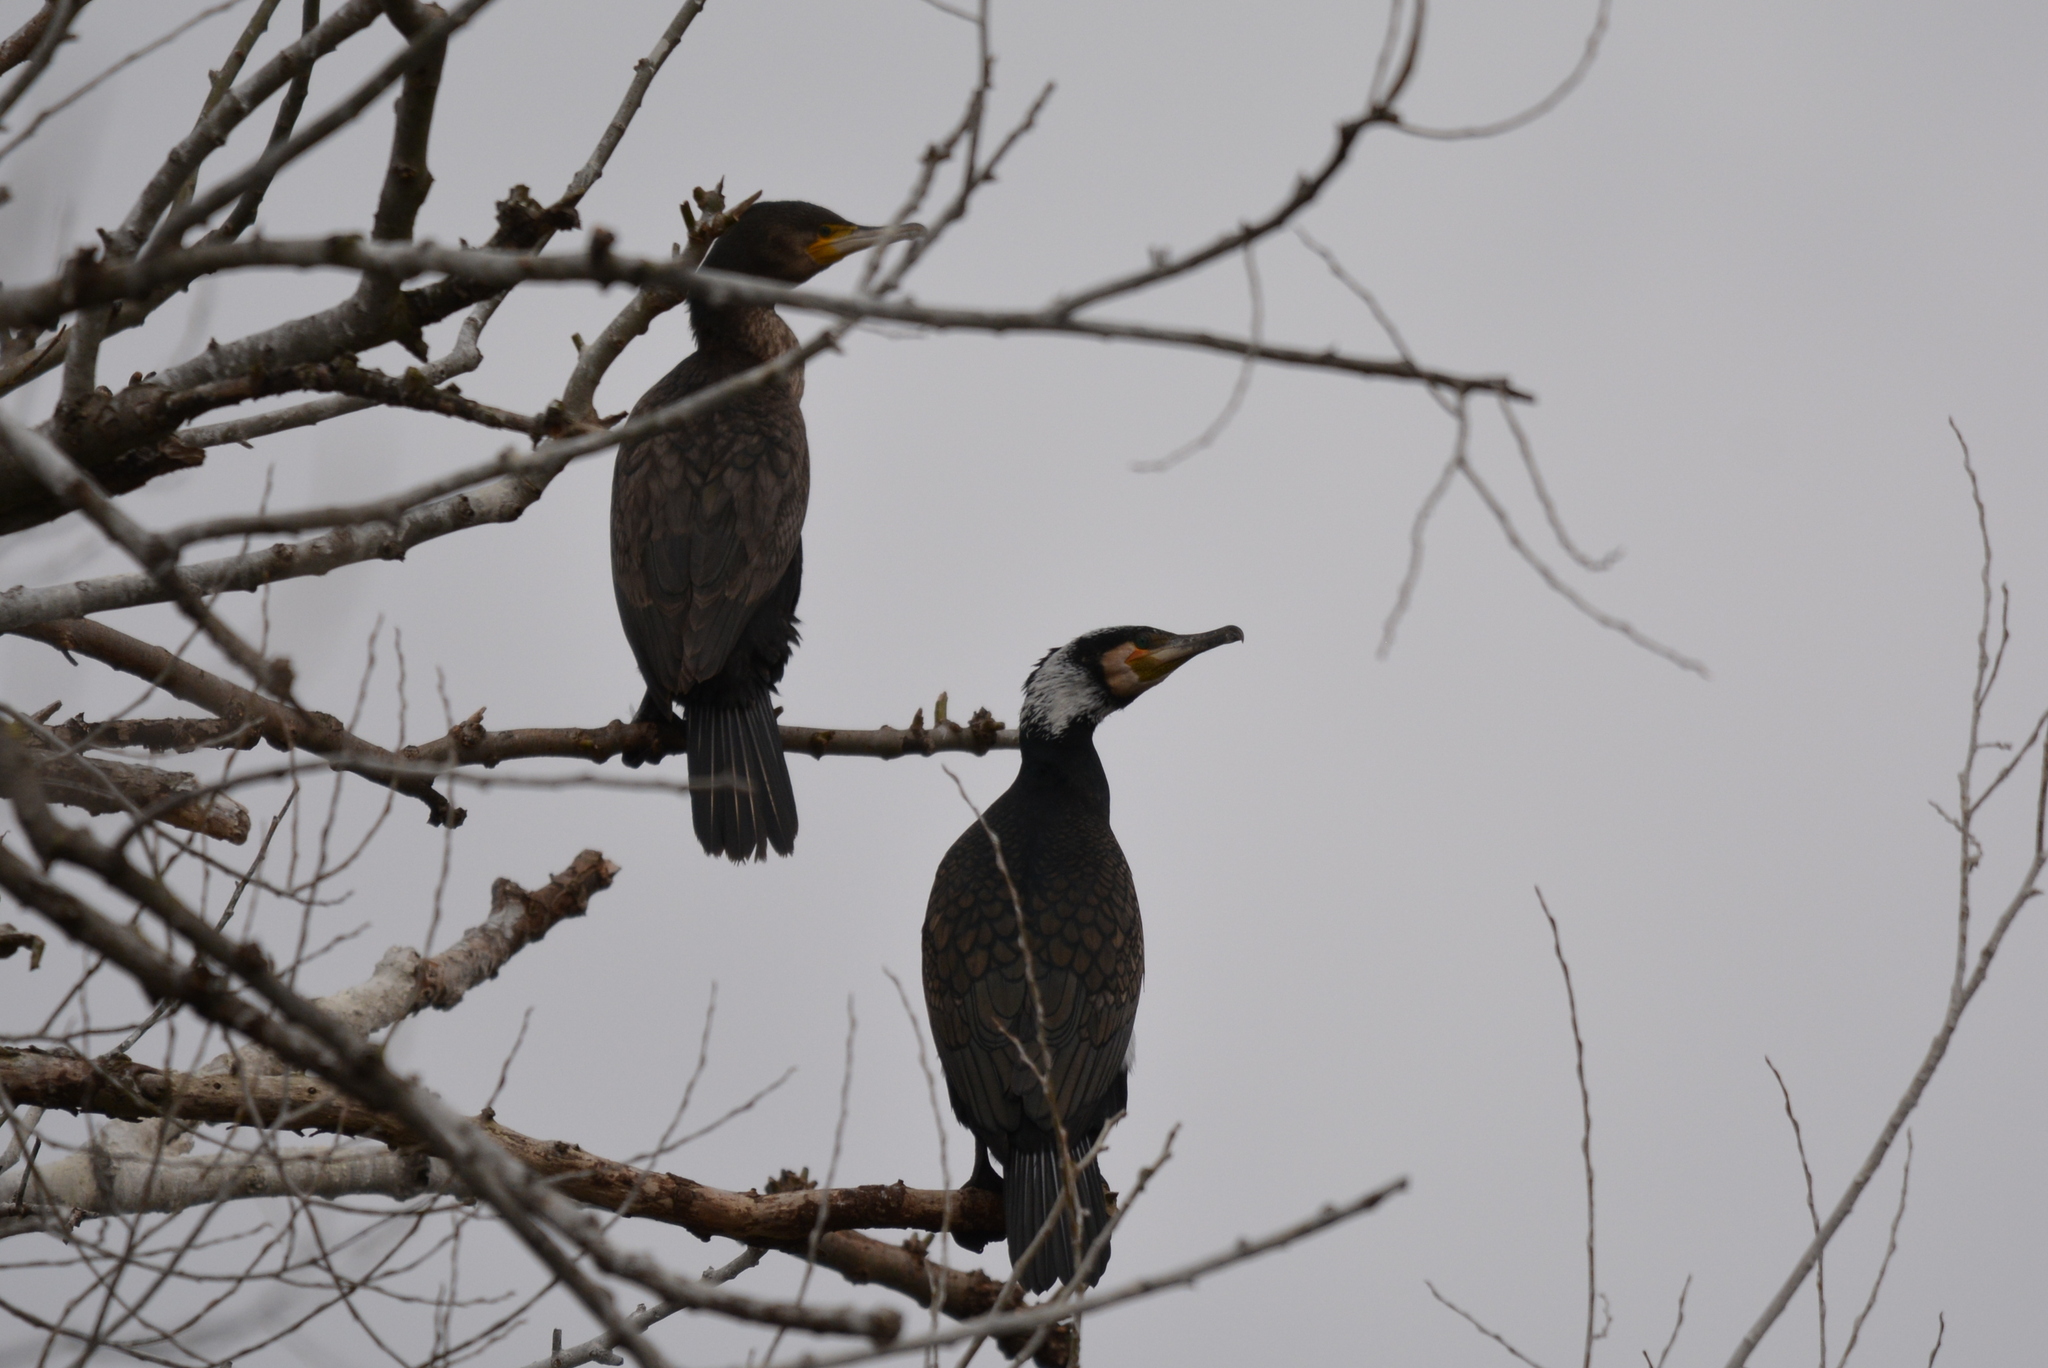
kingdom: Animalia
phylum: Chordata
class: Aves
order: Suliformes
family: Phalacrocoracidae
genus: Phalacrocorax
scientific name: Phalacrocorax carbo
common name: Great cormorant
